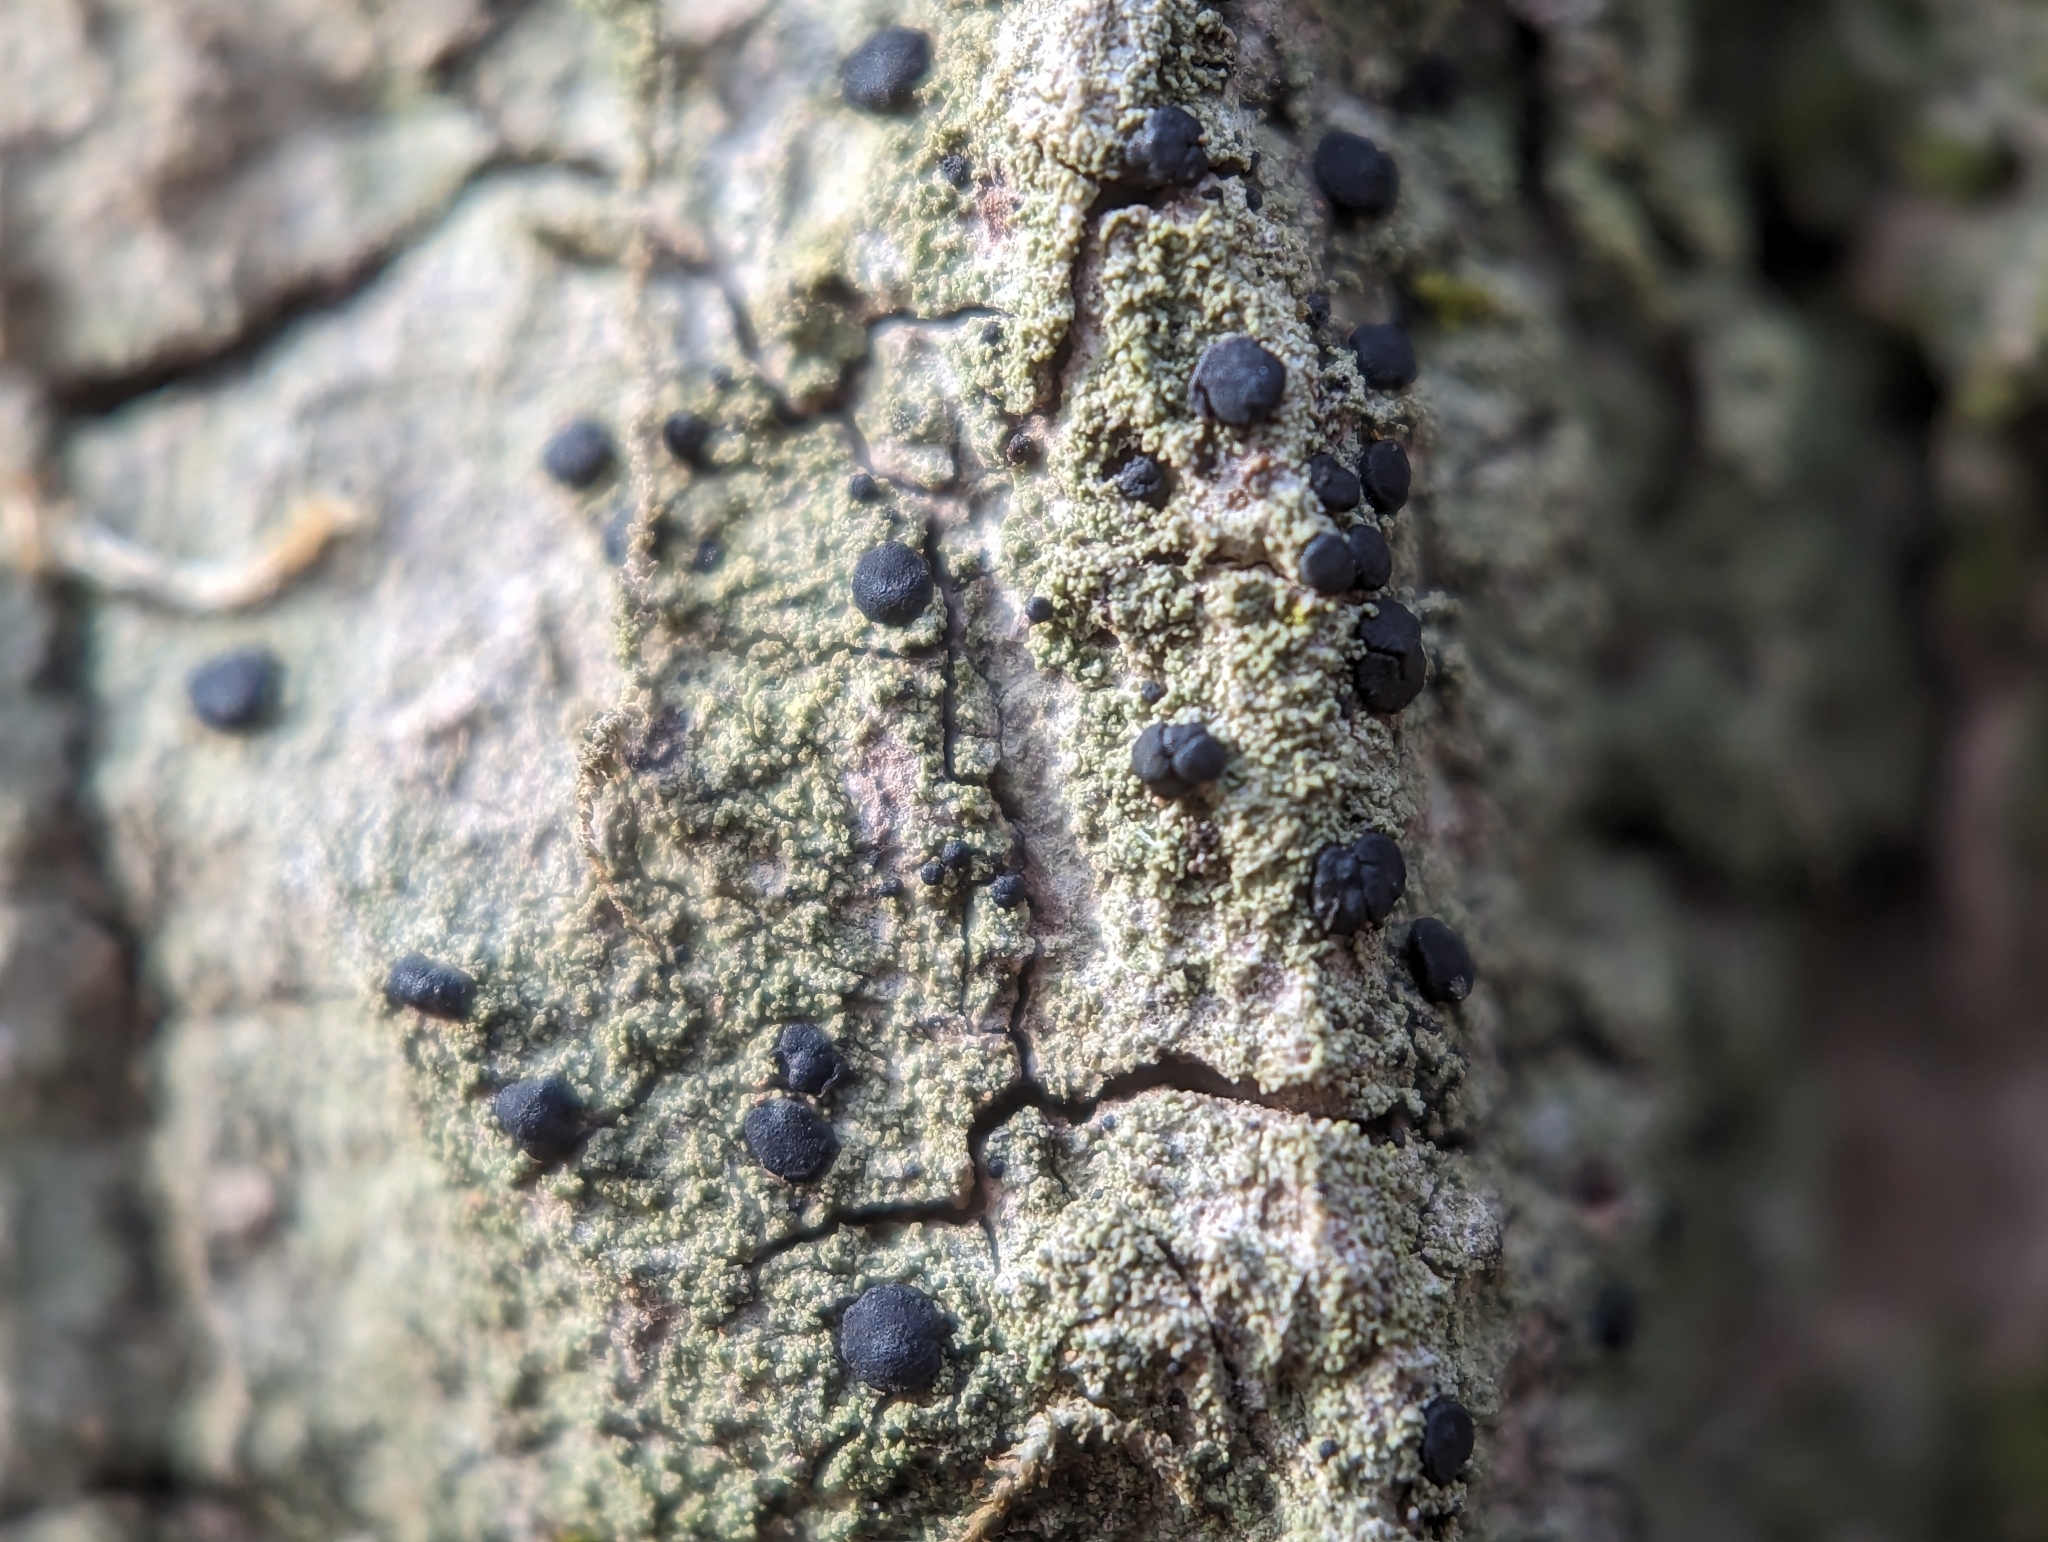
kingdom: Fungi
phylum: Ascomycota
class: Lecanoromycetes
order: Lecanorales
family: Ramalinaceae
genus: Bacidia
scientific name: Bacidia schweinitzii
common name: Surprise lichen
